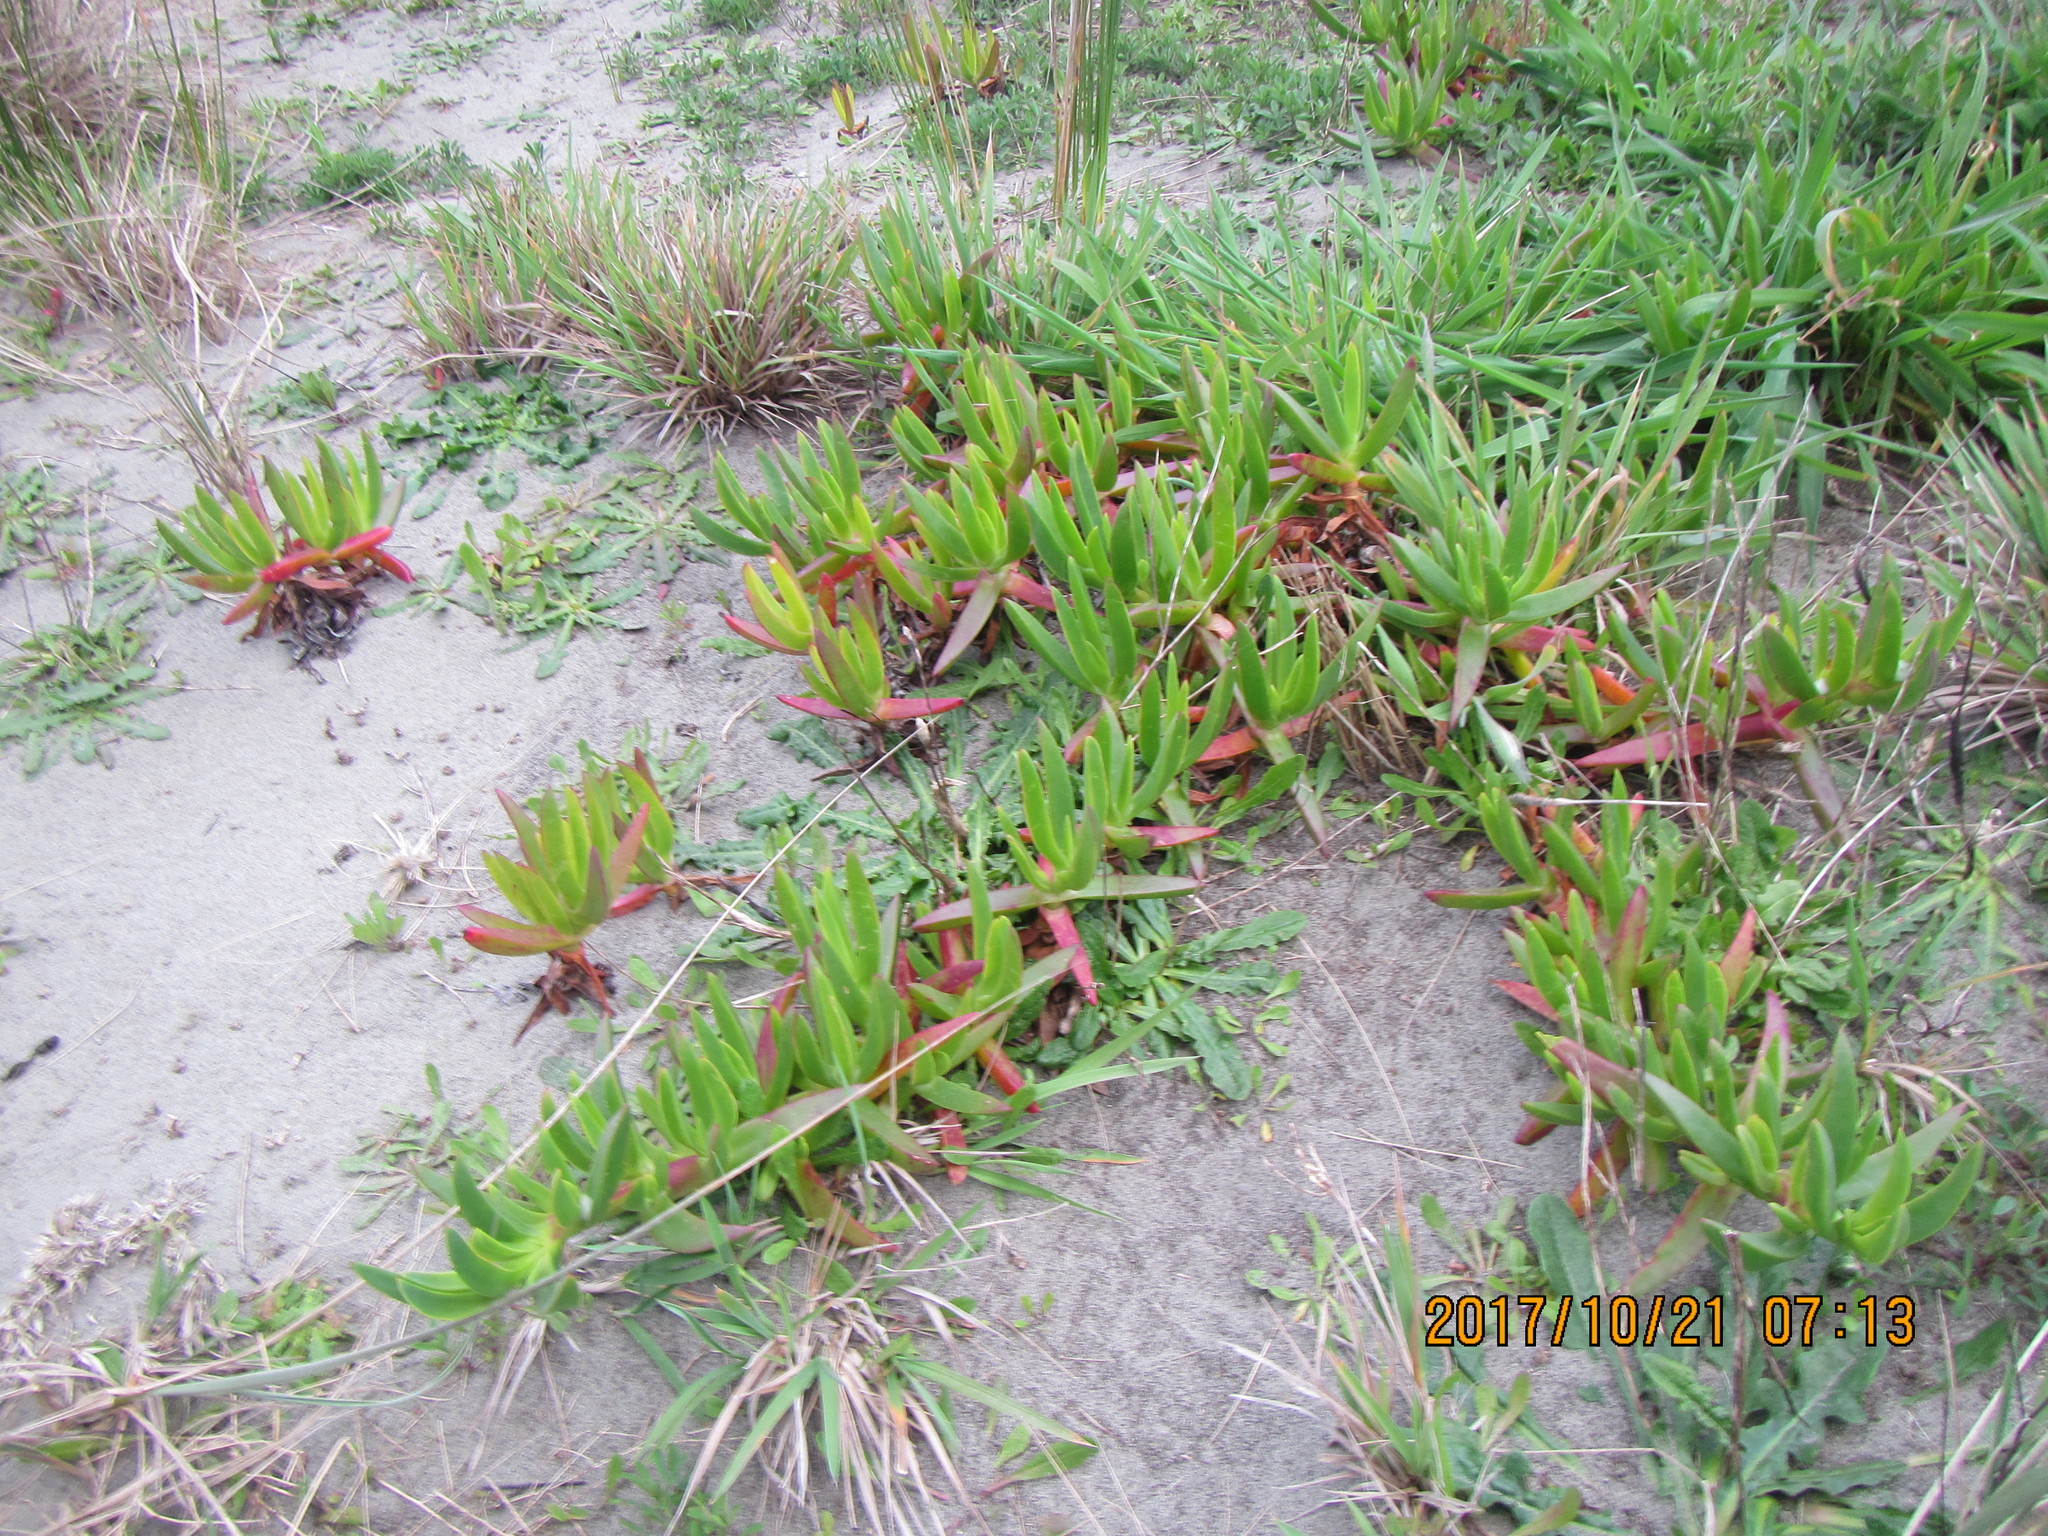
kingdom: Plantae
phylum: Tracheophyta
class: Magnoliopsida
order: Caryophyllales
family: Aizoaceae
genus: Carpobrotus
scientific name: Carpobrotus
